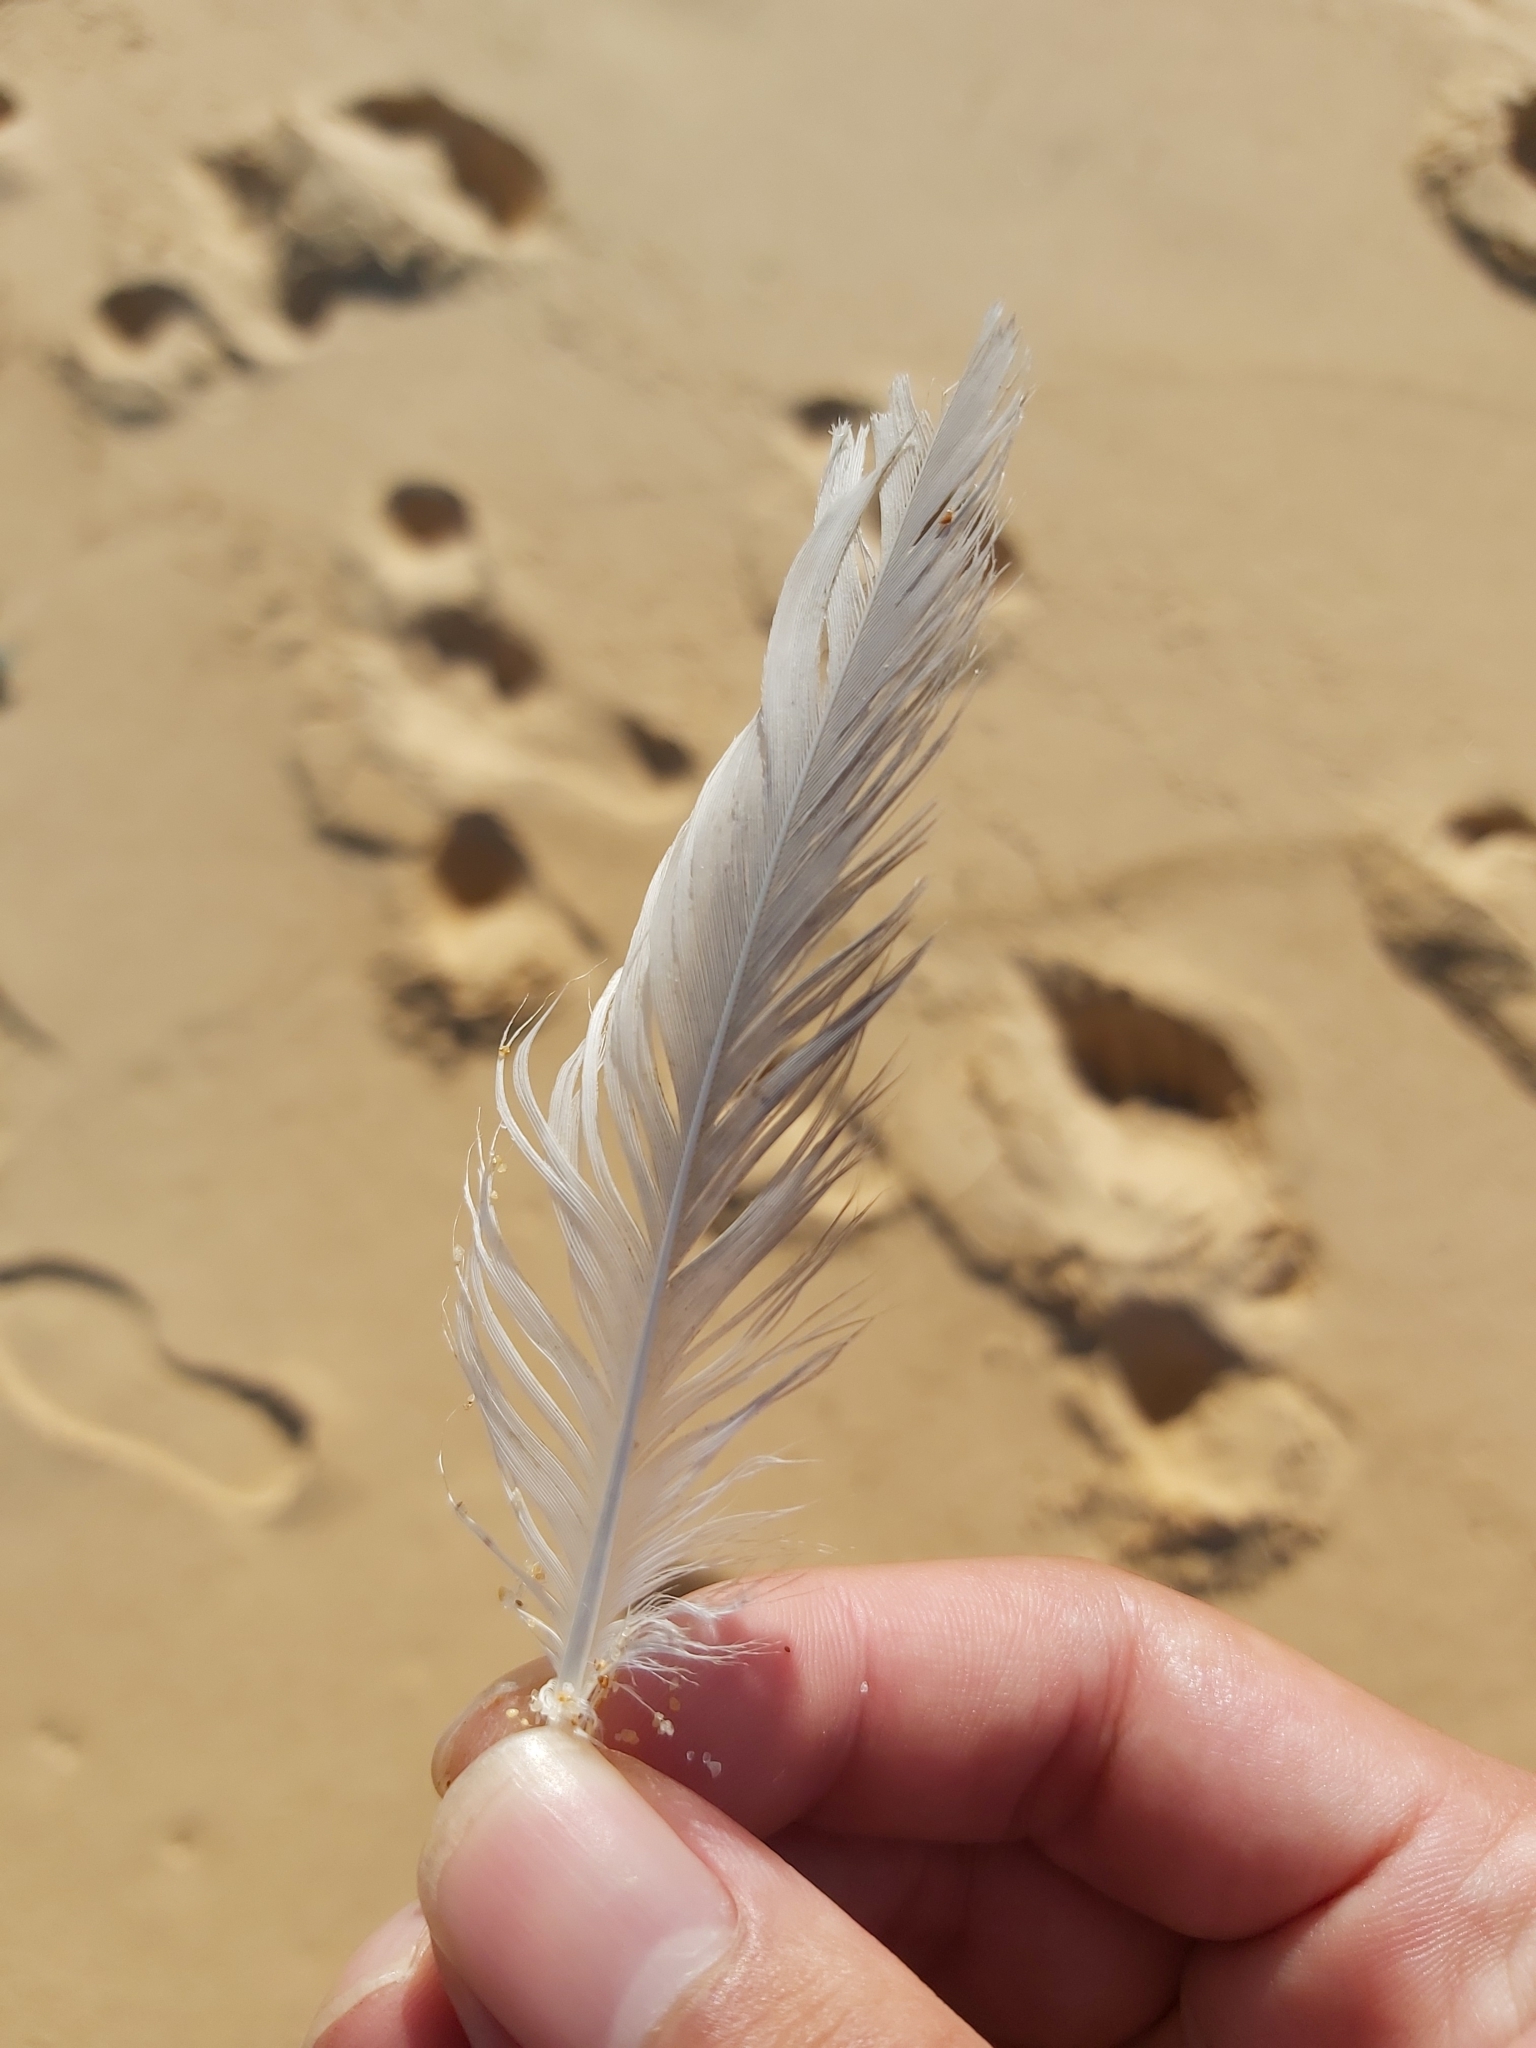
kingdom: Animalia
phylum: Chordata
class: Aves
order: Charadriiformes
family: Laridae
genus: Chroicocephalus
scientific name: Chroicocephalus novaehollandiae
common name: Silver gull
